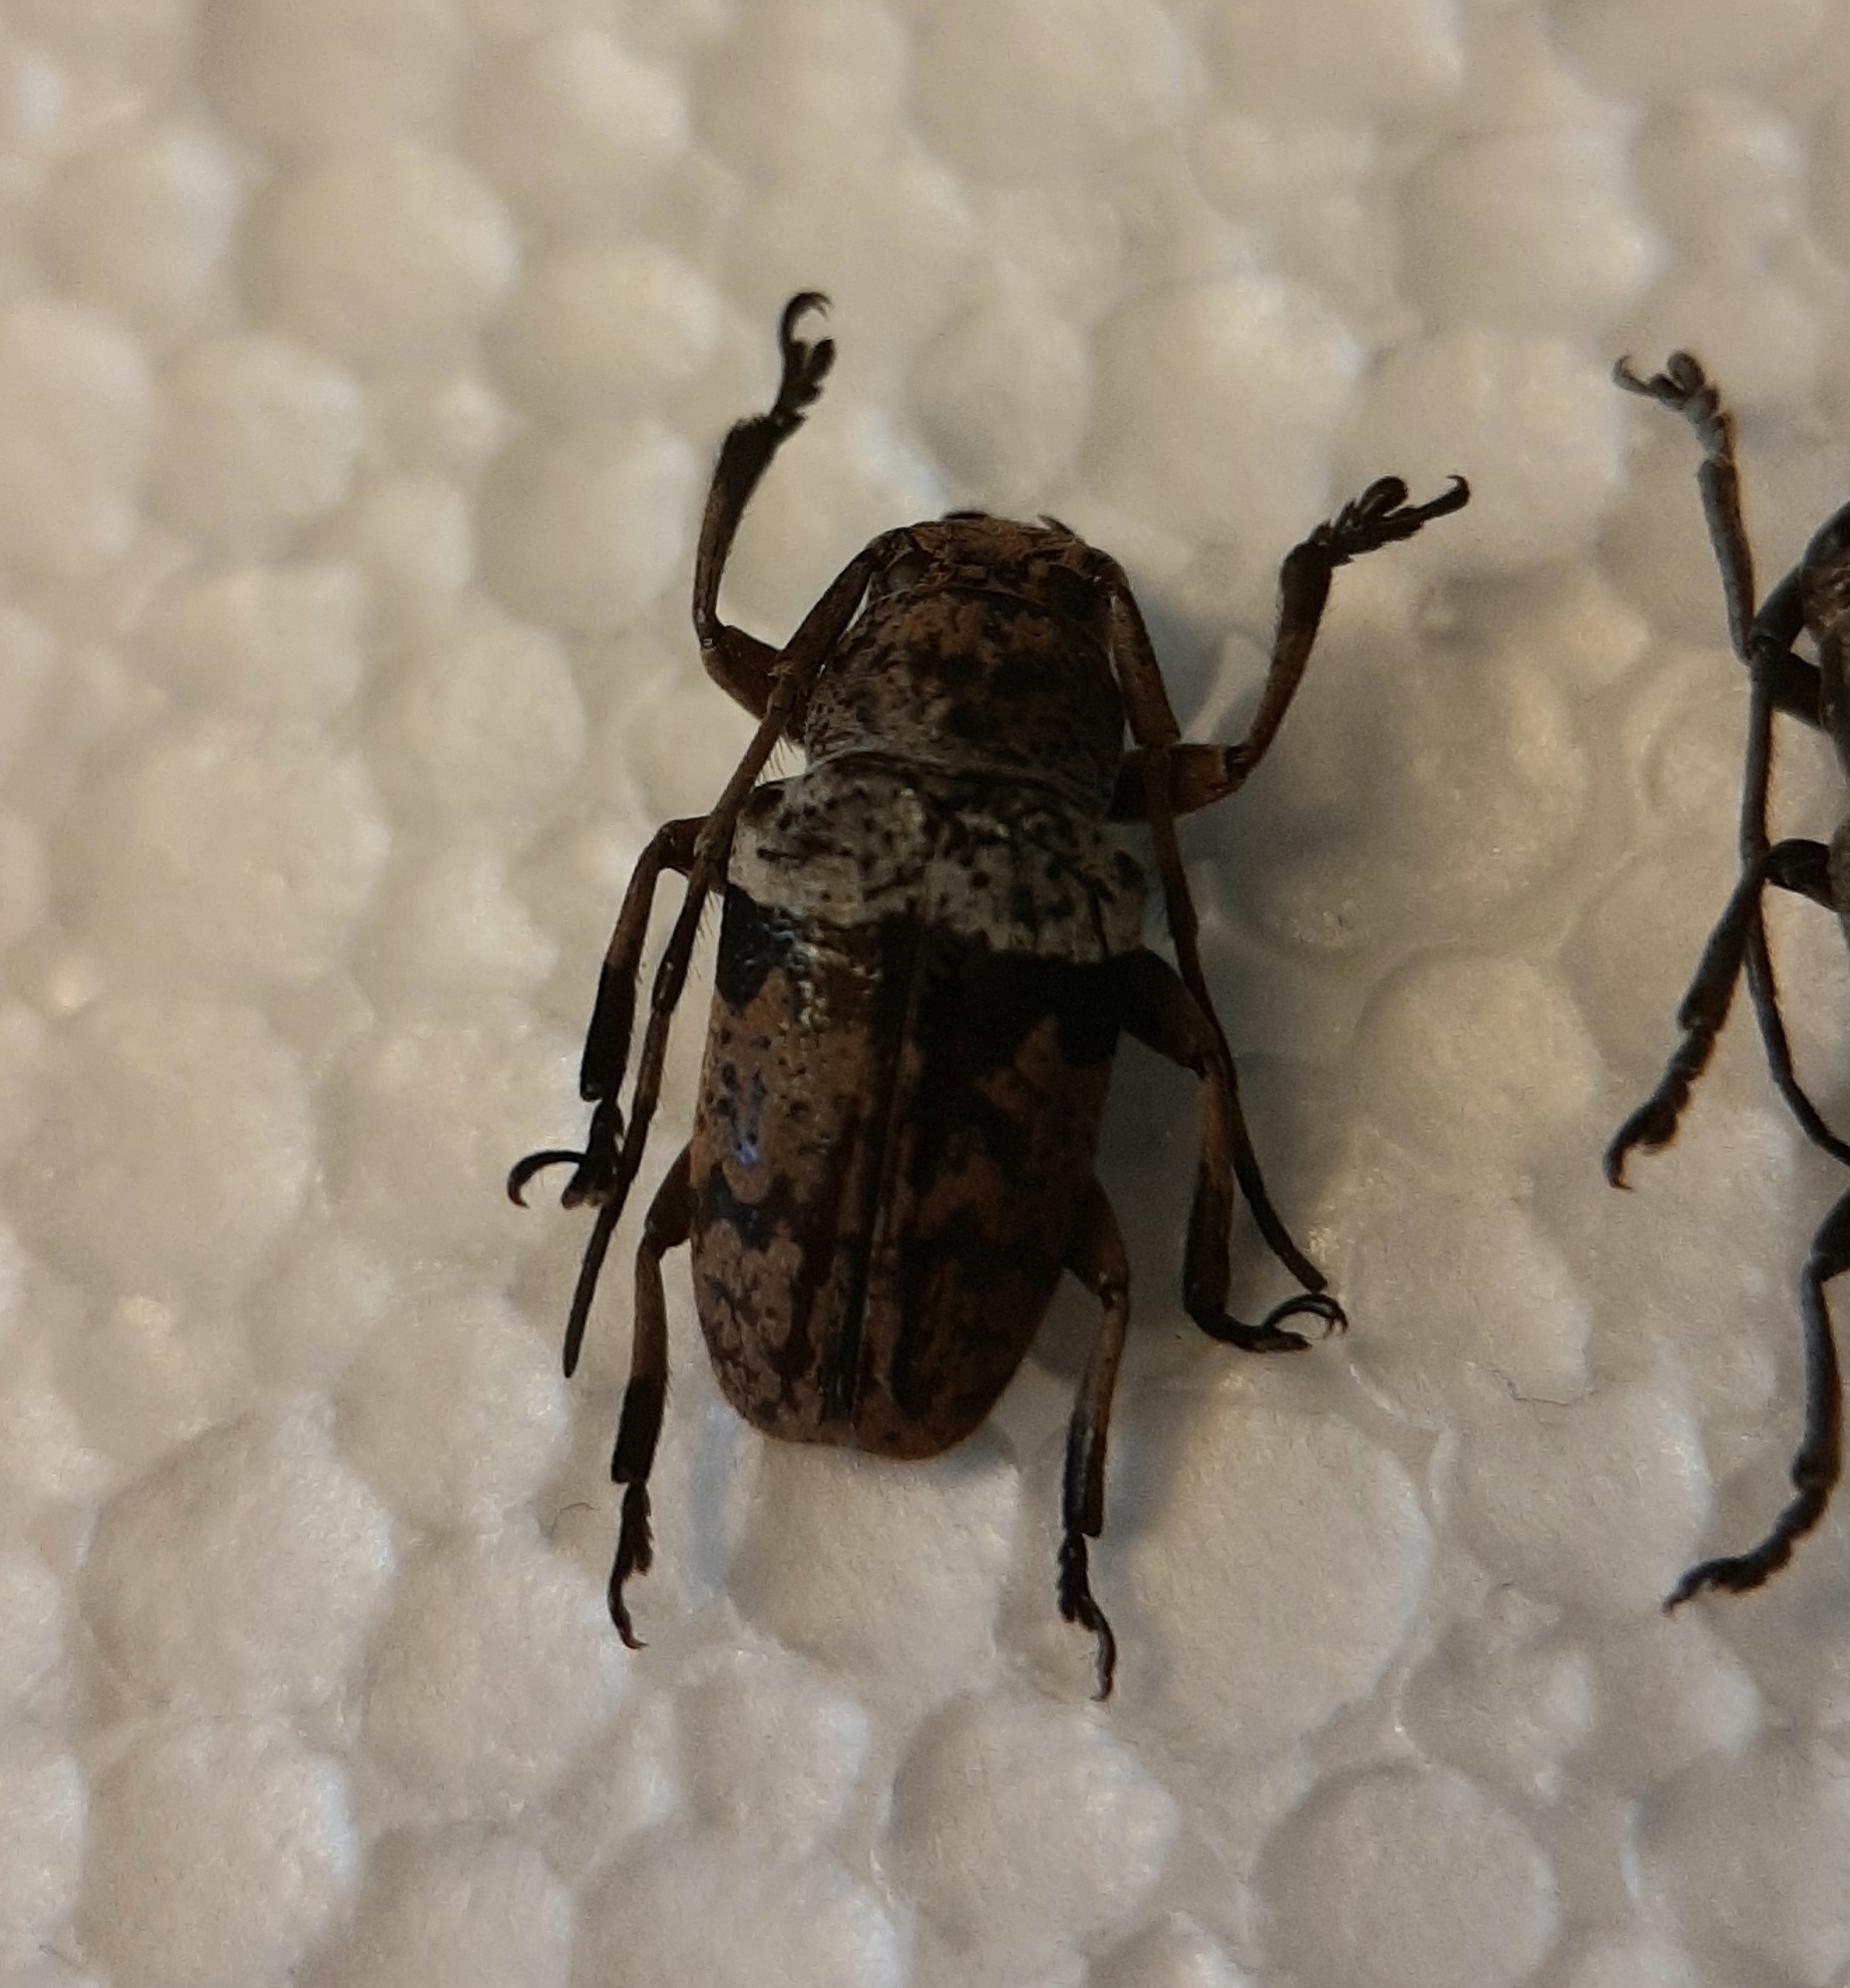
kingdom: Animalia
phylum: Arthropoda
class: Insecta
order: Coleoptera
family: Cerambycidae
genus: Agelasta
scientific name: Agelasta mouhotii
